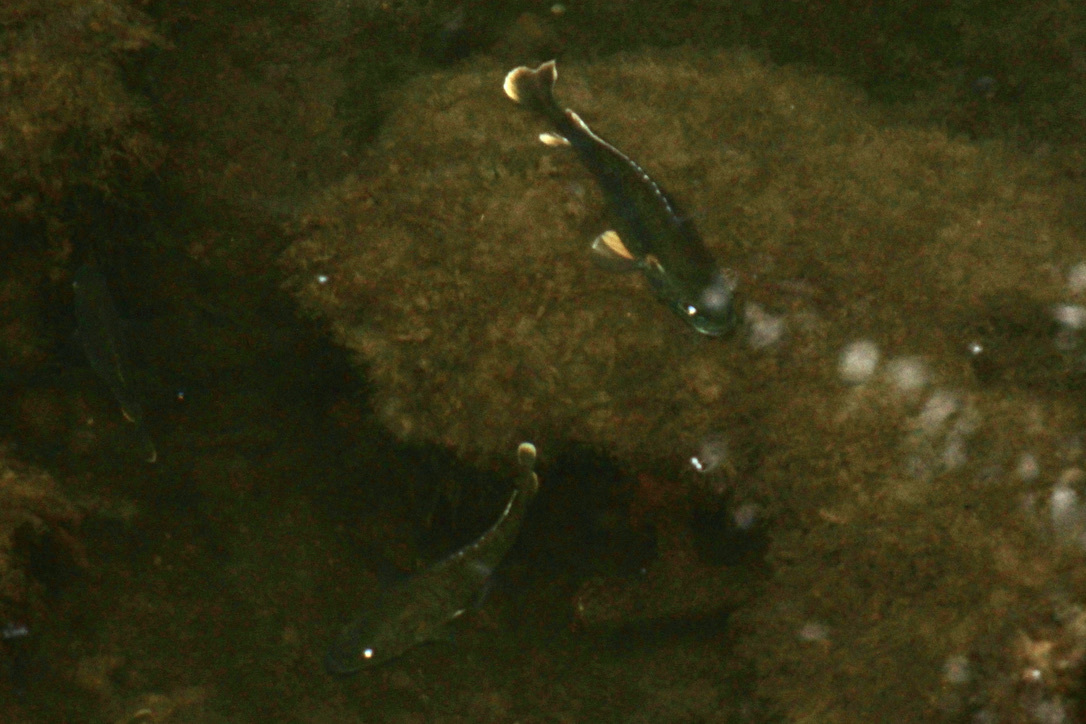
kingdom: Animalia
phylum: Chordata
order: Perciformes
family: Centrarchidae
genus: Lepomis
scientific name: Lepomis cyanellus
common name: Green sunfish
